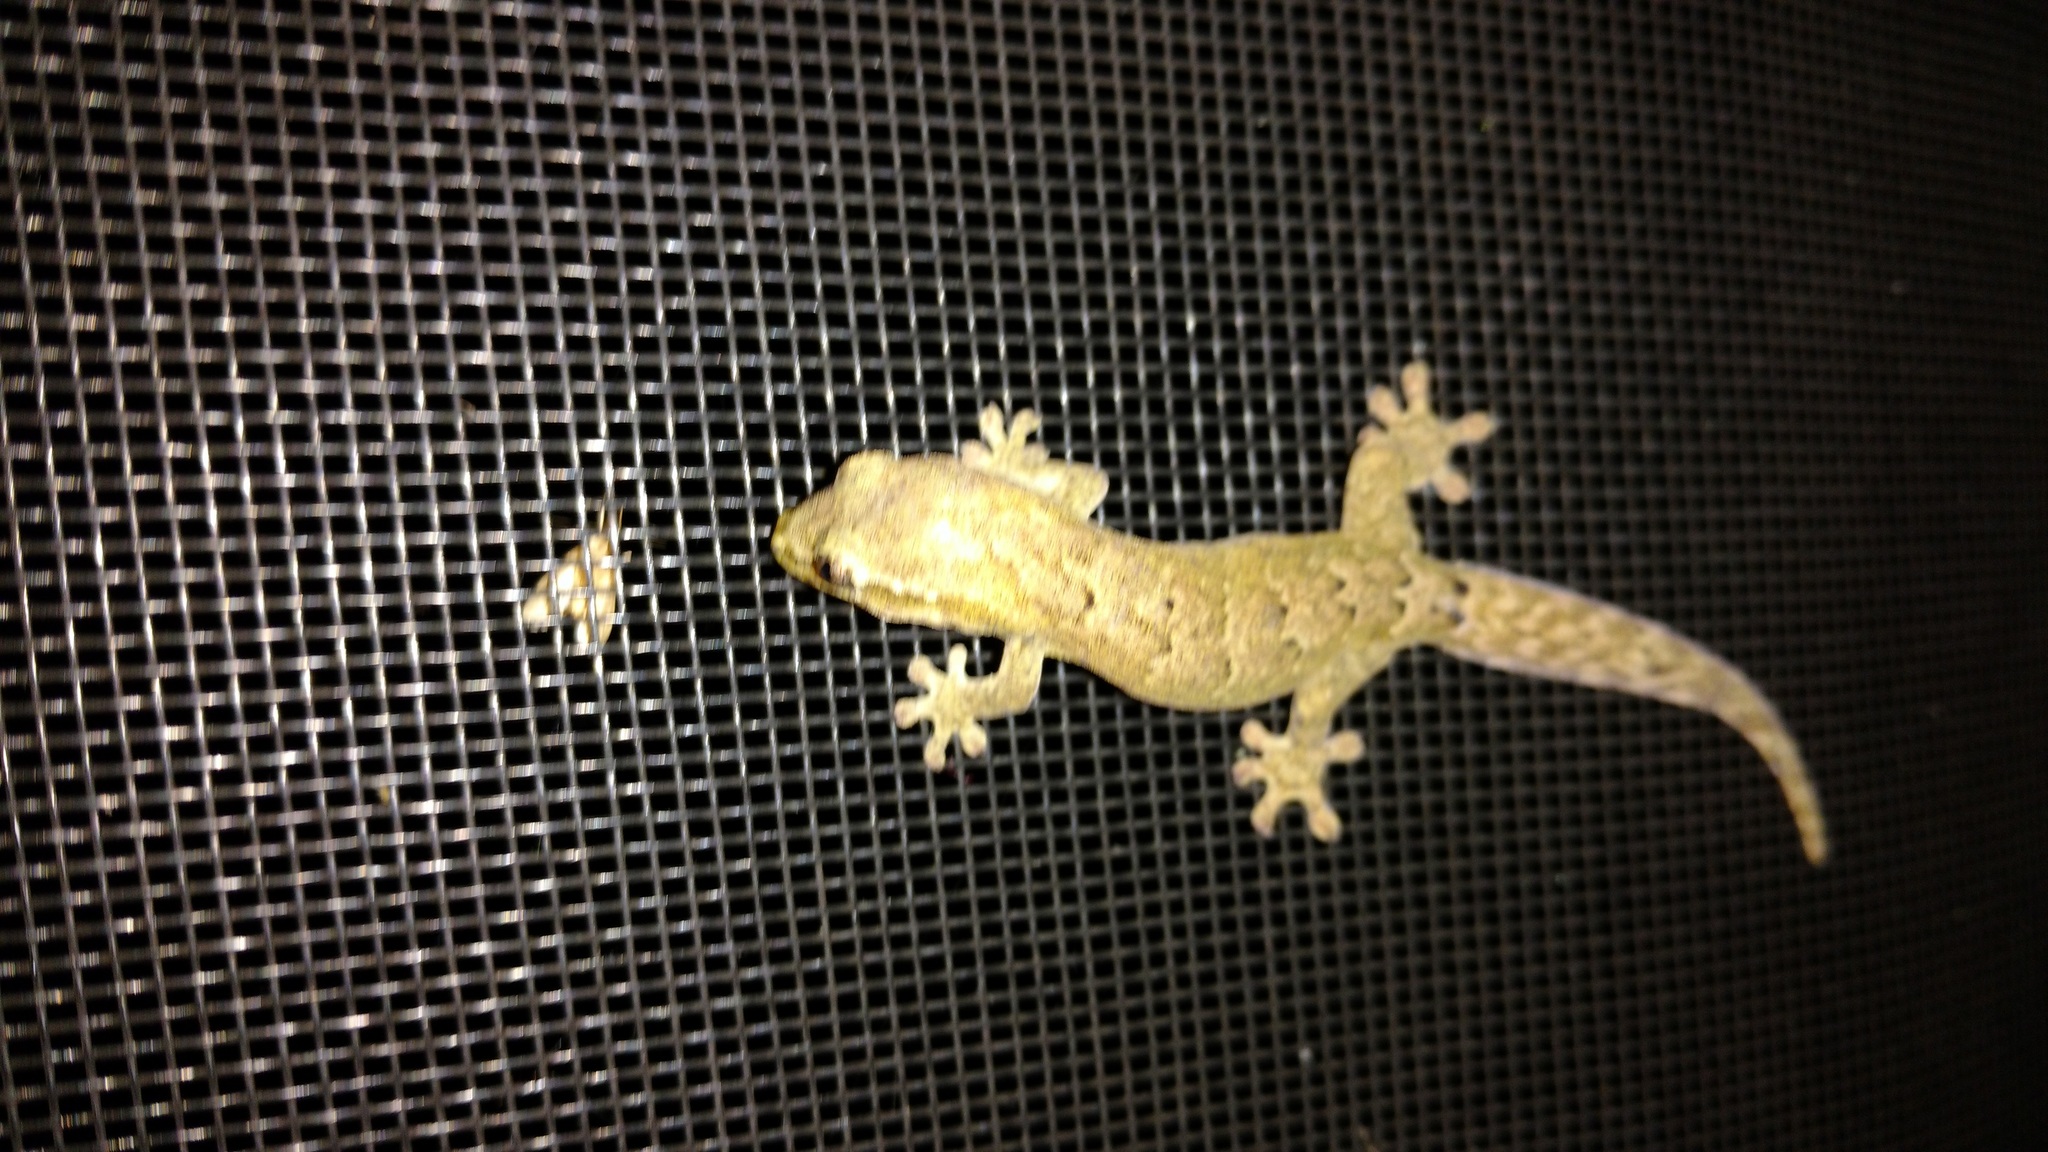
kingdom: Animalia
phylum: Chordata
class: Squamata
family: Gekkonidae
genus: Lepidodactylus
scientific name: Lepidodactylus lugubris
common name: Mourning gecko
